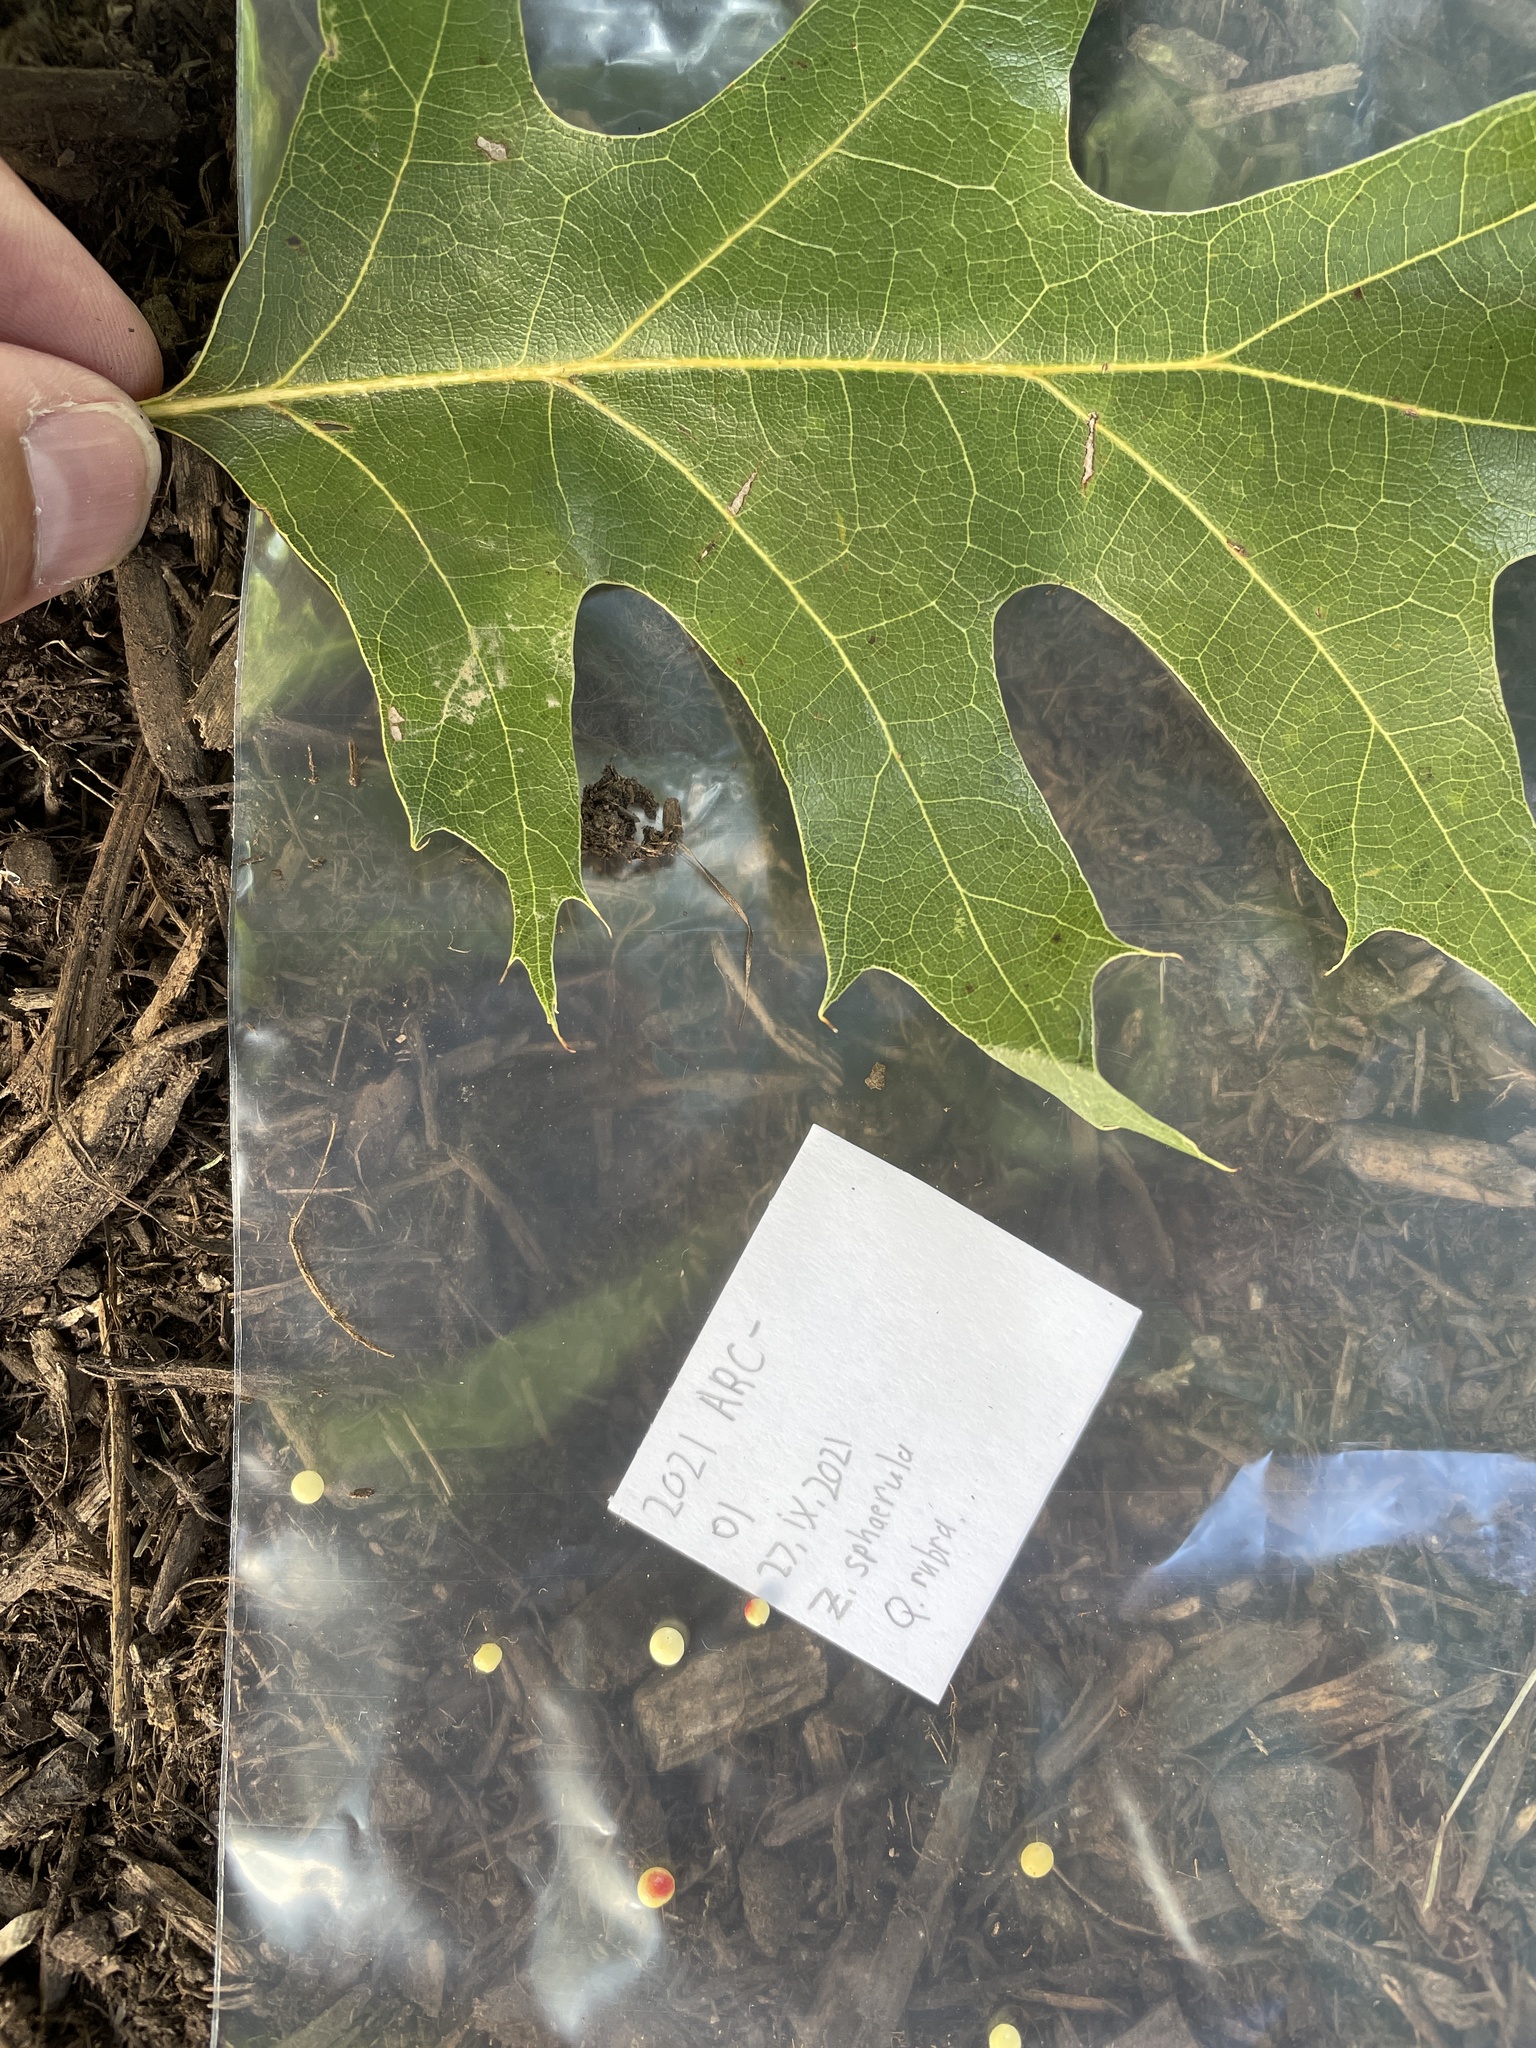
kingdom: Animalia
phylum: Arthropoda
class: Insecta
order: Hymenoptera
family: Cynipidae
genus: Zopheroteras
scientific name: Zopheroteras
